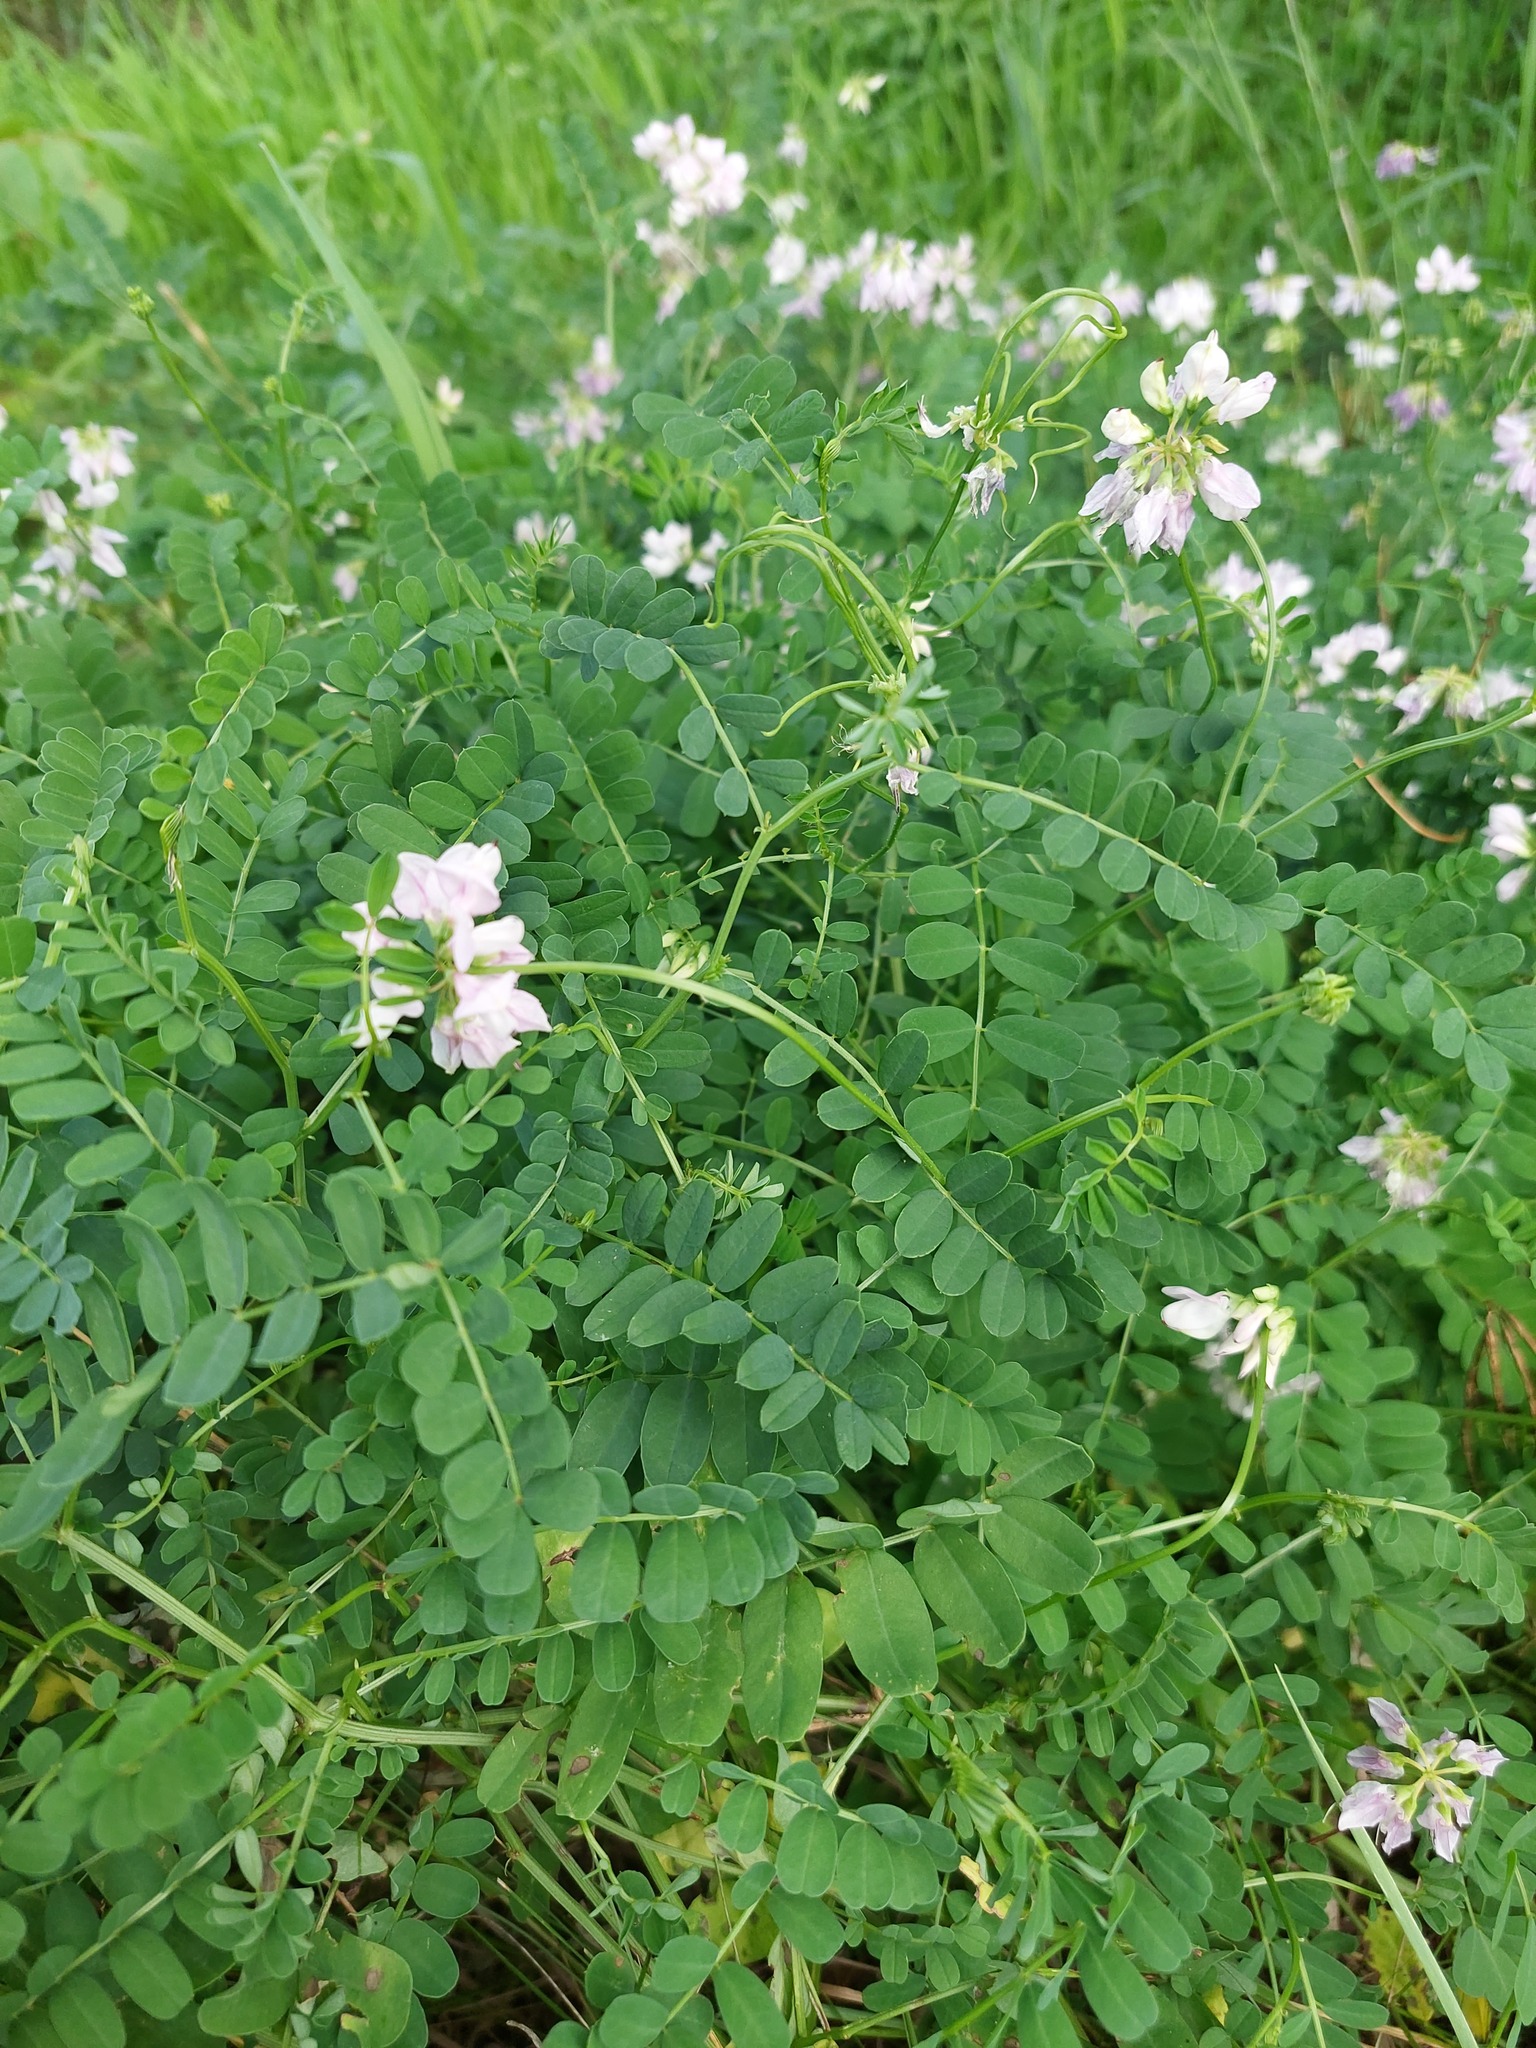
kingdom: Plantae
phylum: Tracheophyta
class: Magnoliopsida
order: Fabales
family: Fabaceae
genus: Coronilla
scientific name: Coronilla varia
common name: Crownvetch
